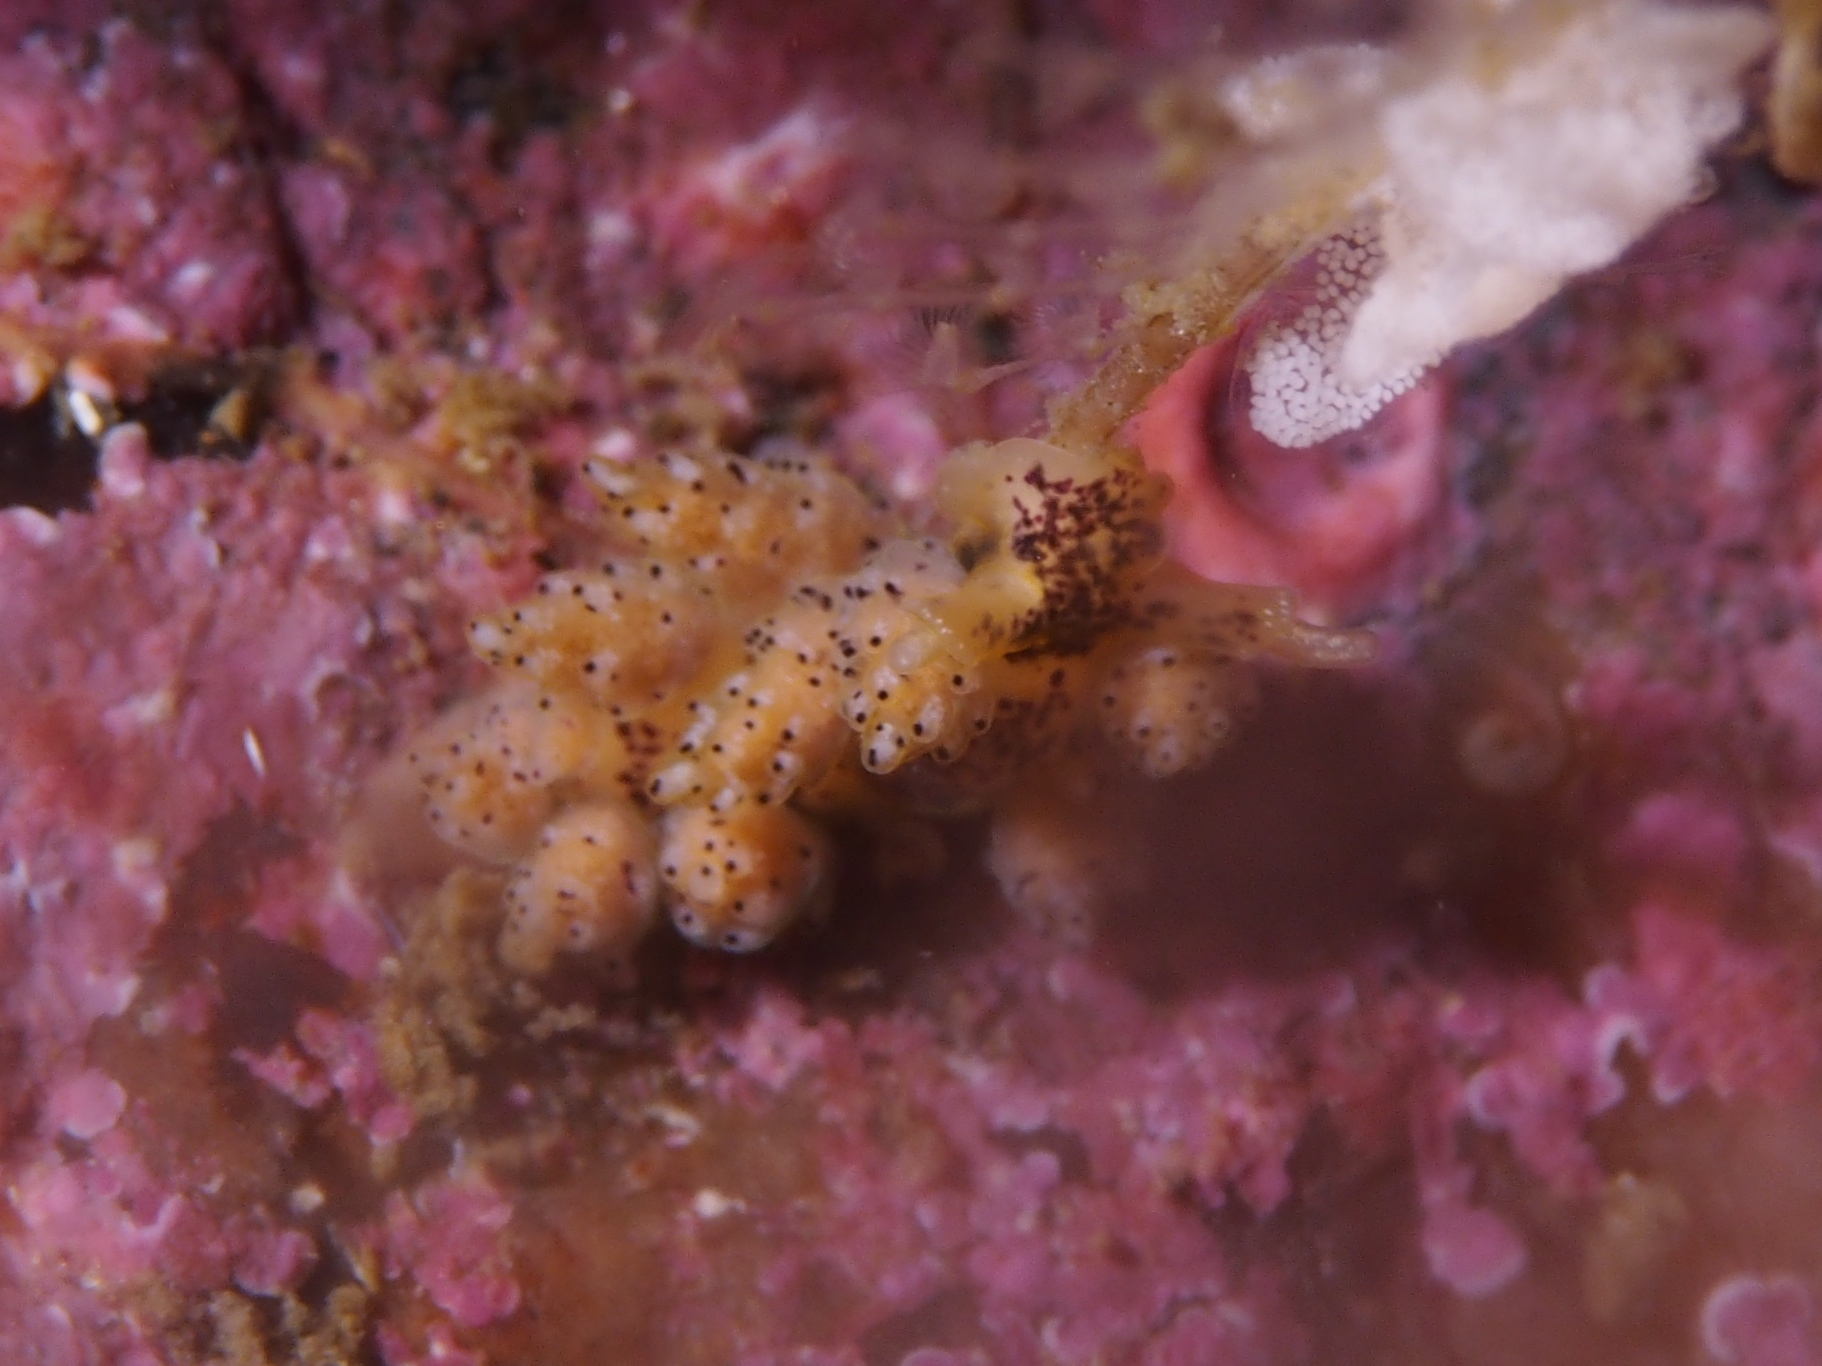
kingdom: Animalia
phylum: Mollusca
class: Gastropoda
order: Nudibranchia
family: Dotidae
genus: Doto
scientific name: Doto dunnei
